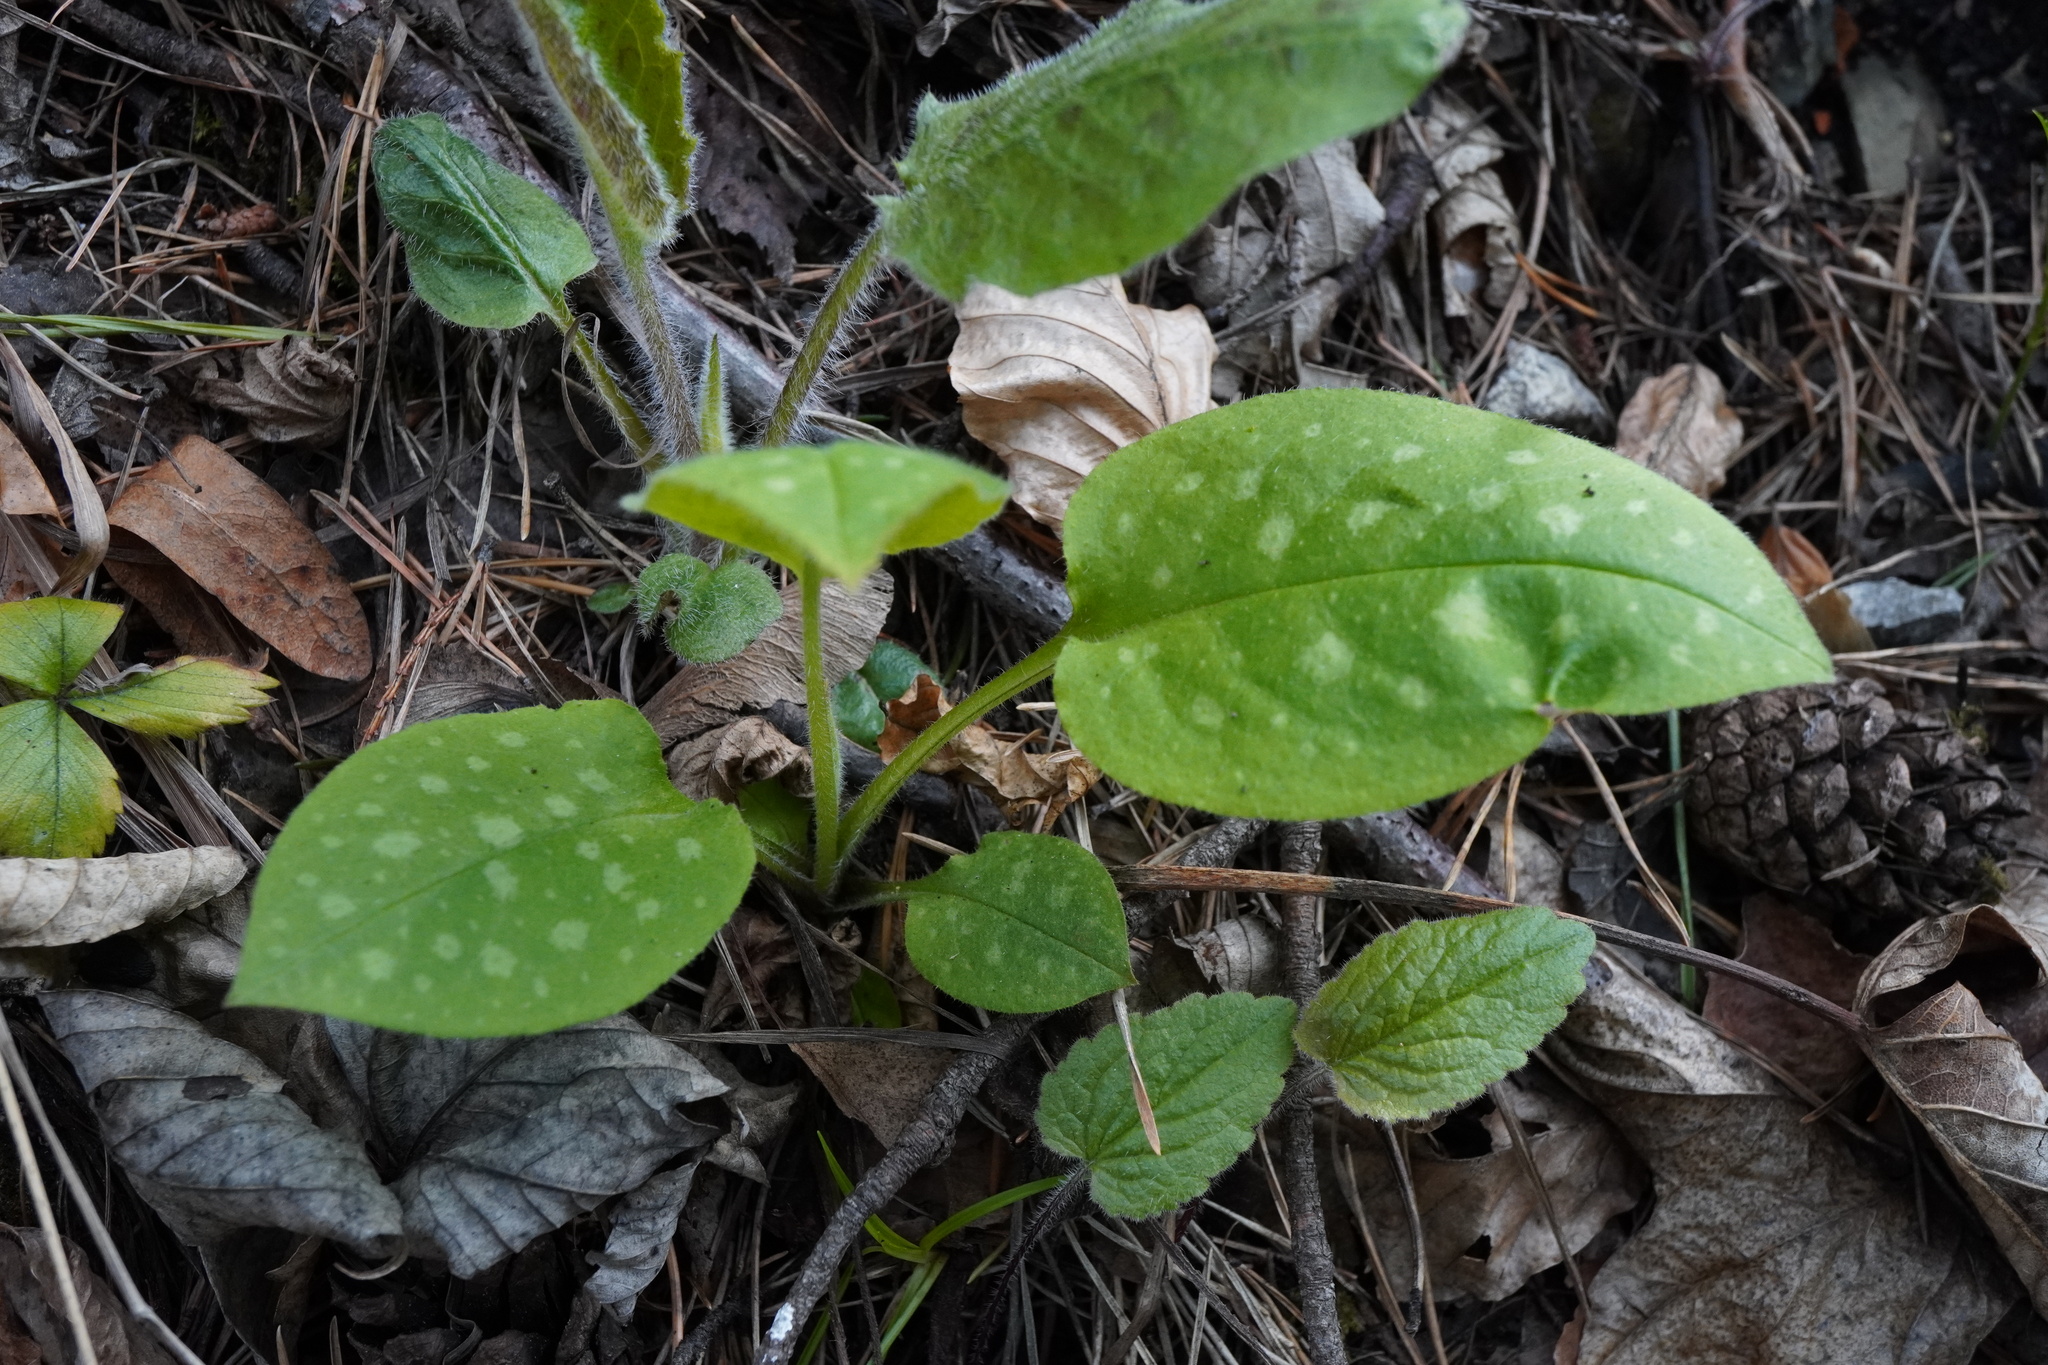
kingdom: Plantae
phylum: Tracheophyta
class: Magnoliopsida
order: Boraginales
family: Boraginaceae
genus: Pulmonaria
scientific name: Pulmonaria officinalis
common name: Lungwort
